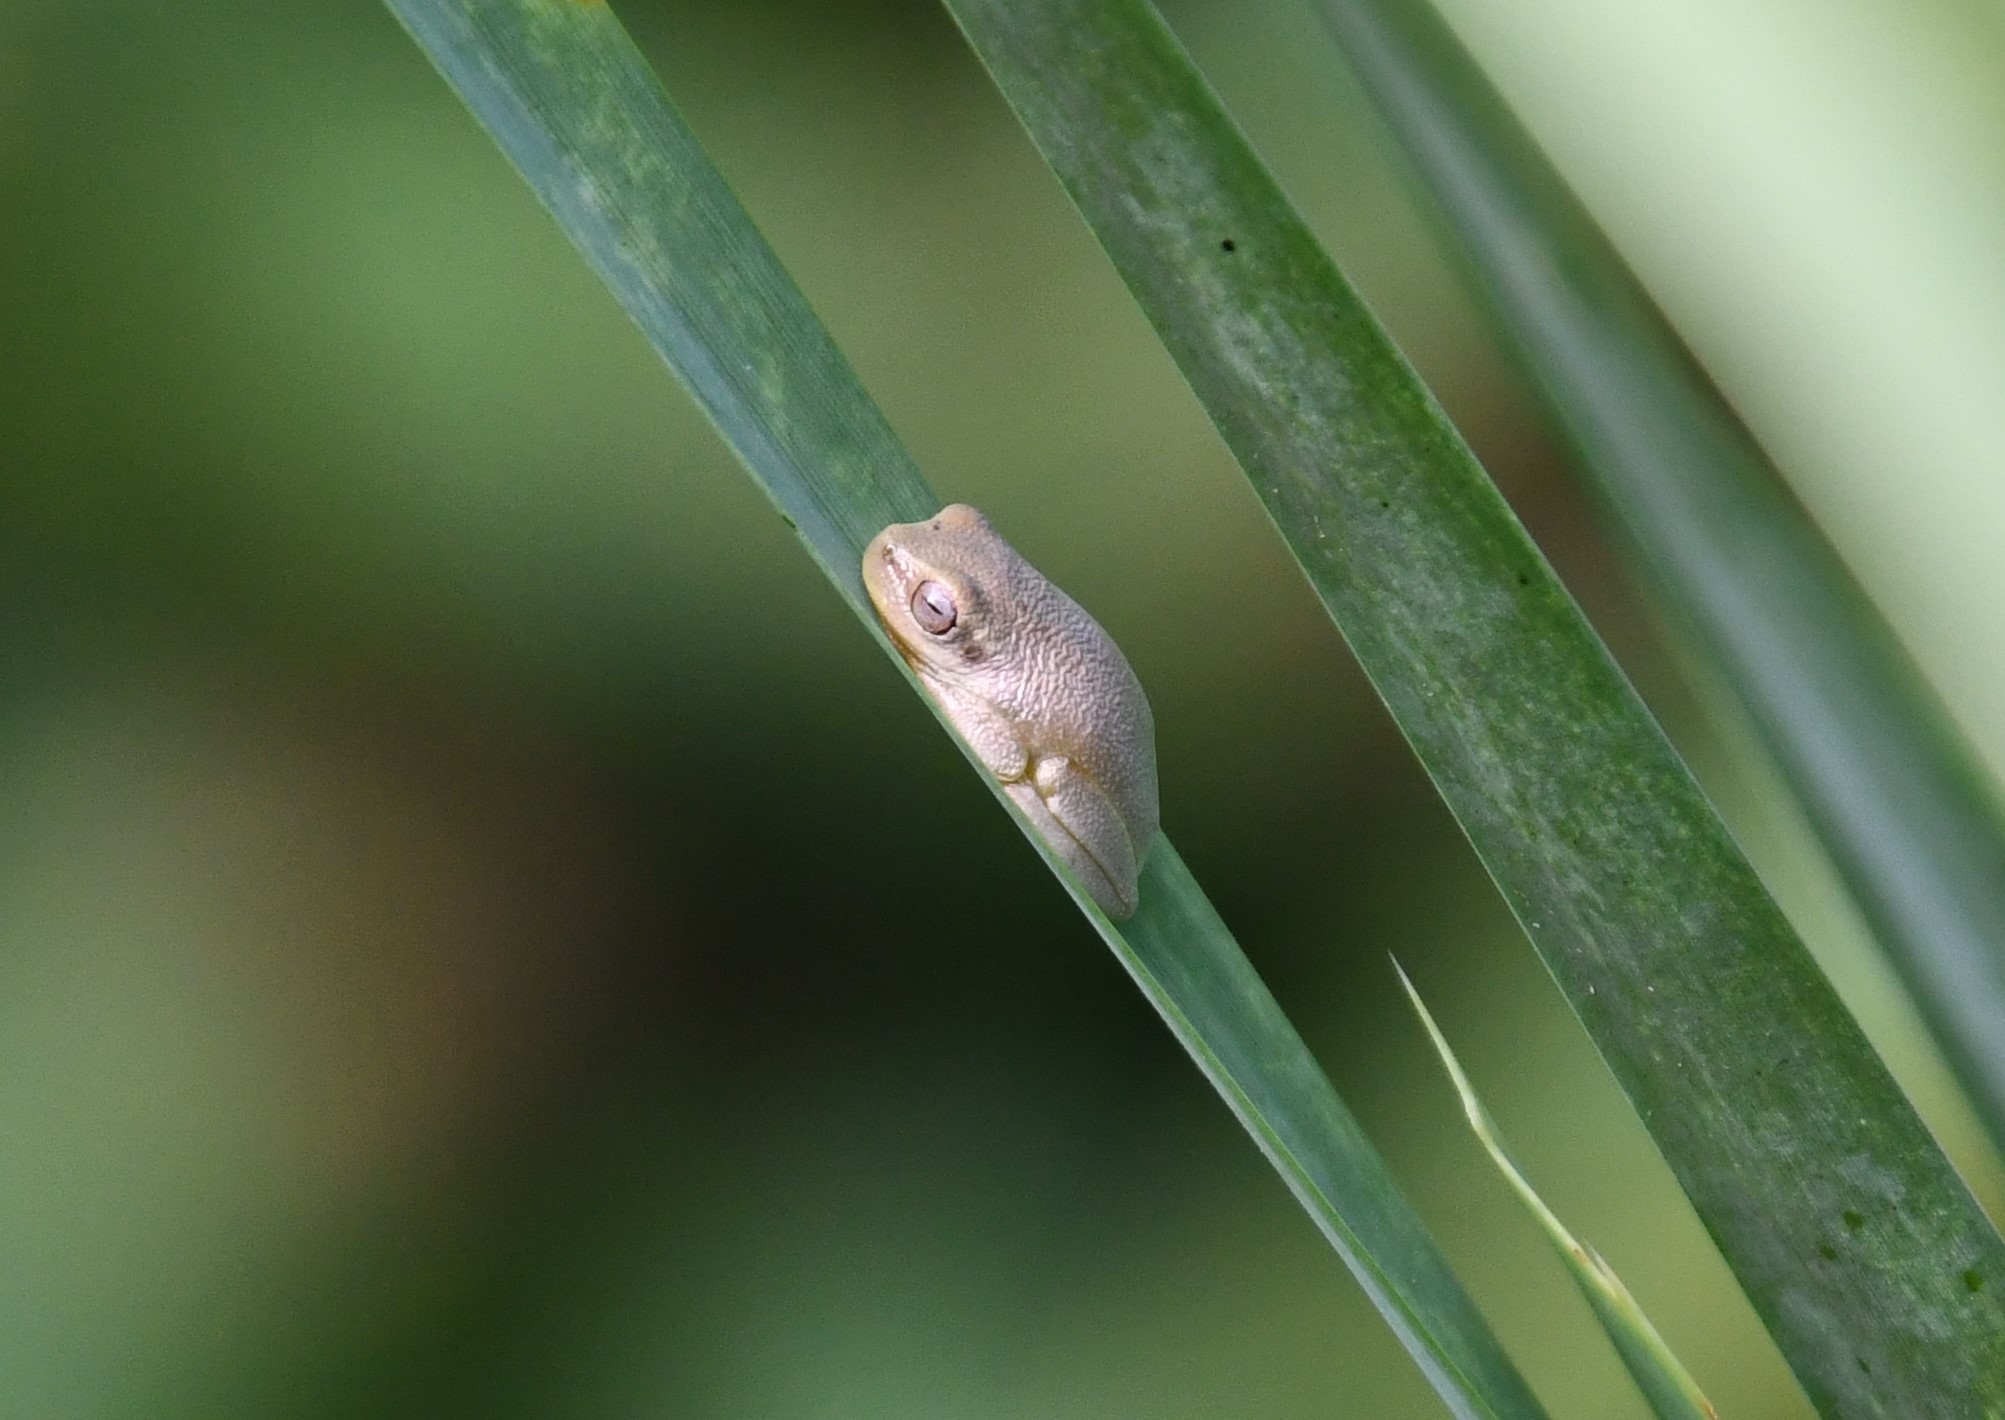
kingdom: Animalia
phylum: Chordata
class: Amphibia
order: Anura
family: Pelodryadidae
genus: Litoria
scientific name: Litoria fallax
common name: Eastern dwarf treefrog
